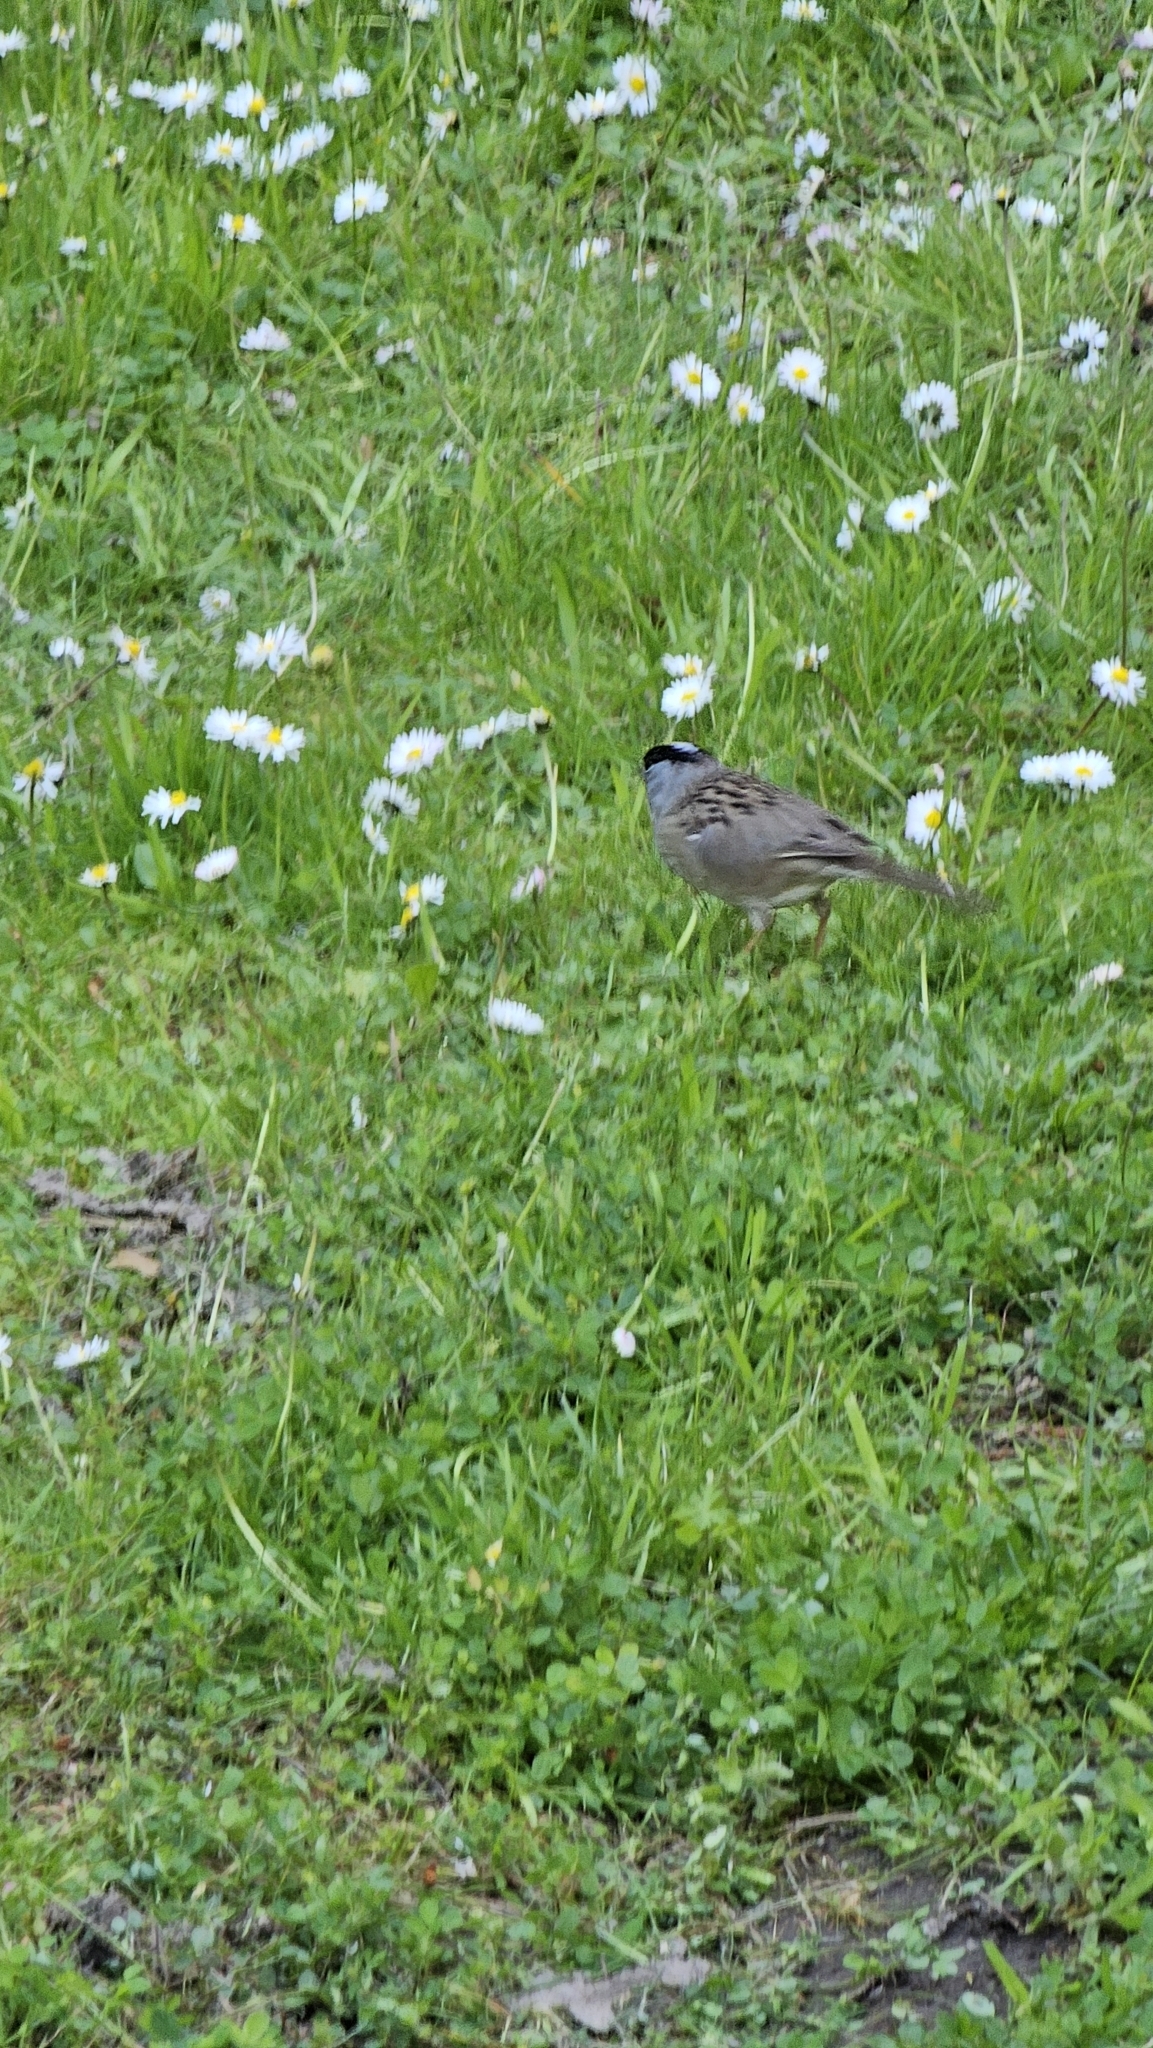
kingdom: Animalia
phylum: Chordata
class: Aves
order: Passeriformes
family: Passerellidae
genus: Zonotrichia
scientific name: Zonotrichia atricapilla
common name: Golden-crowned sparrow
